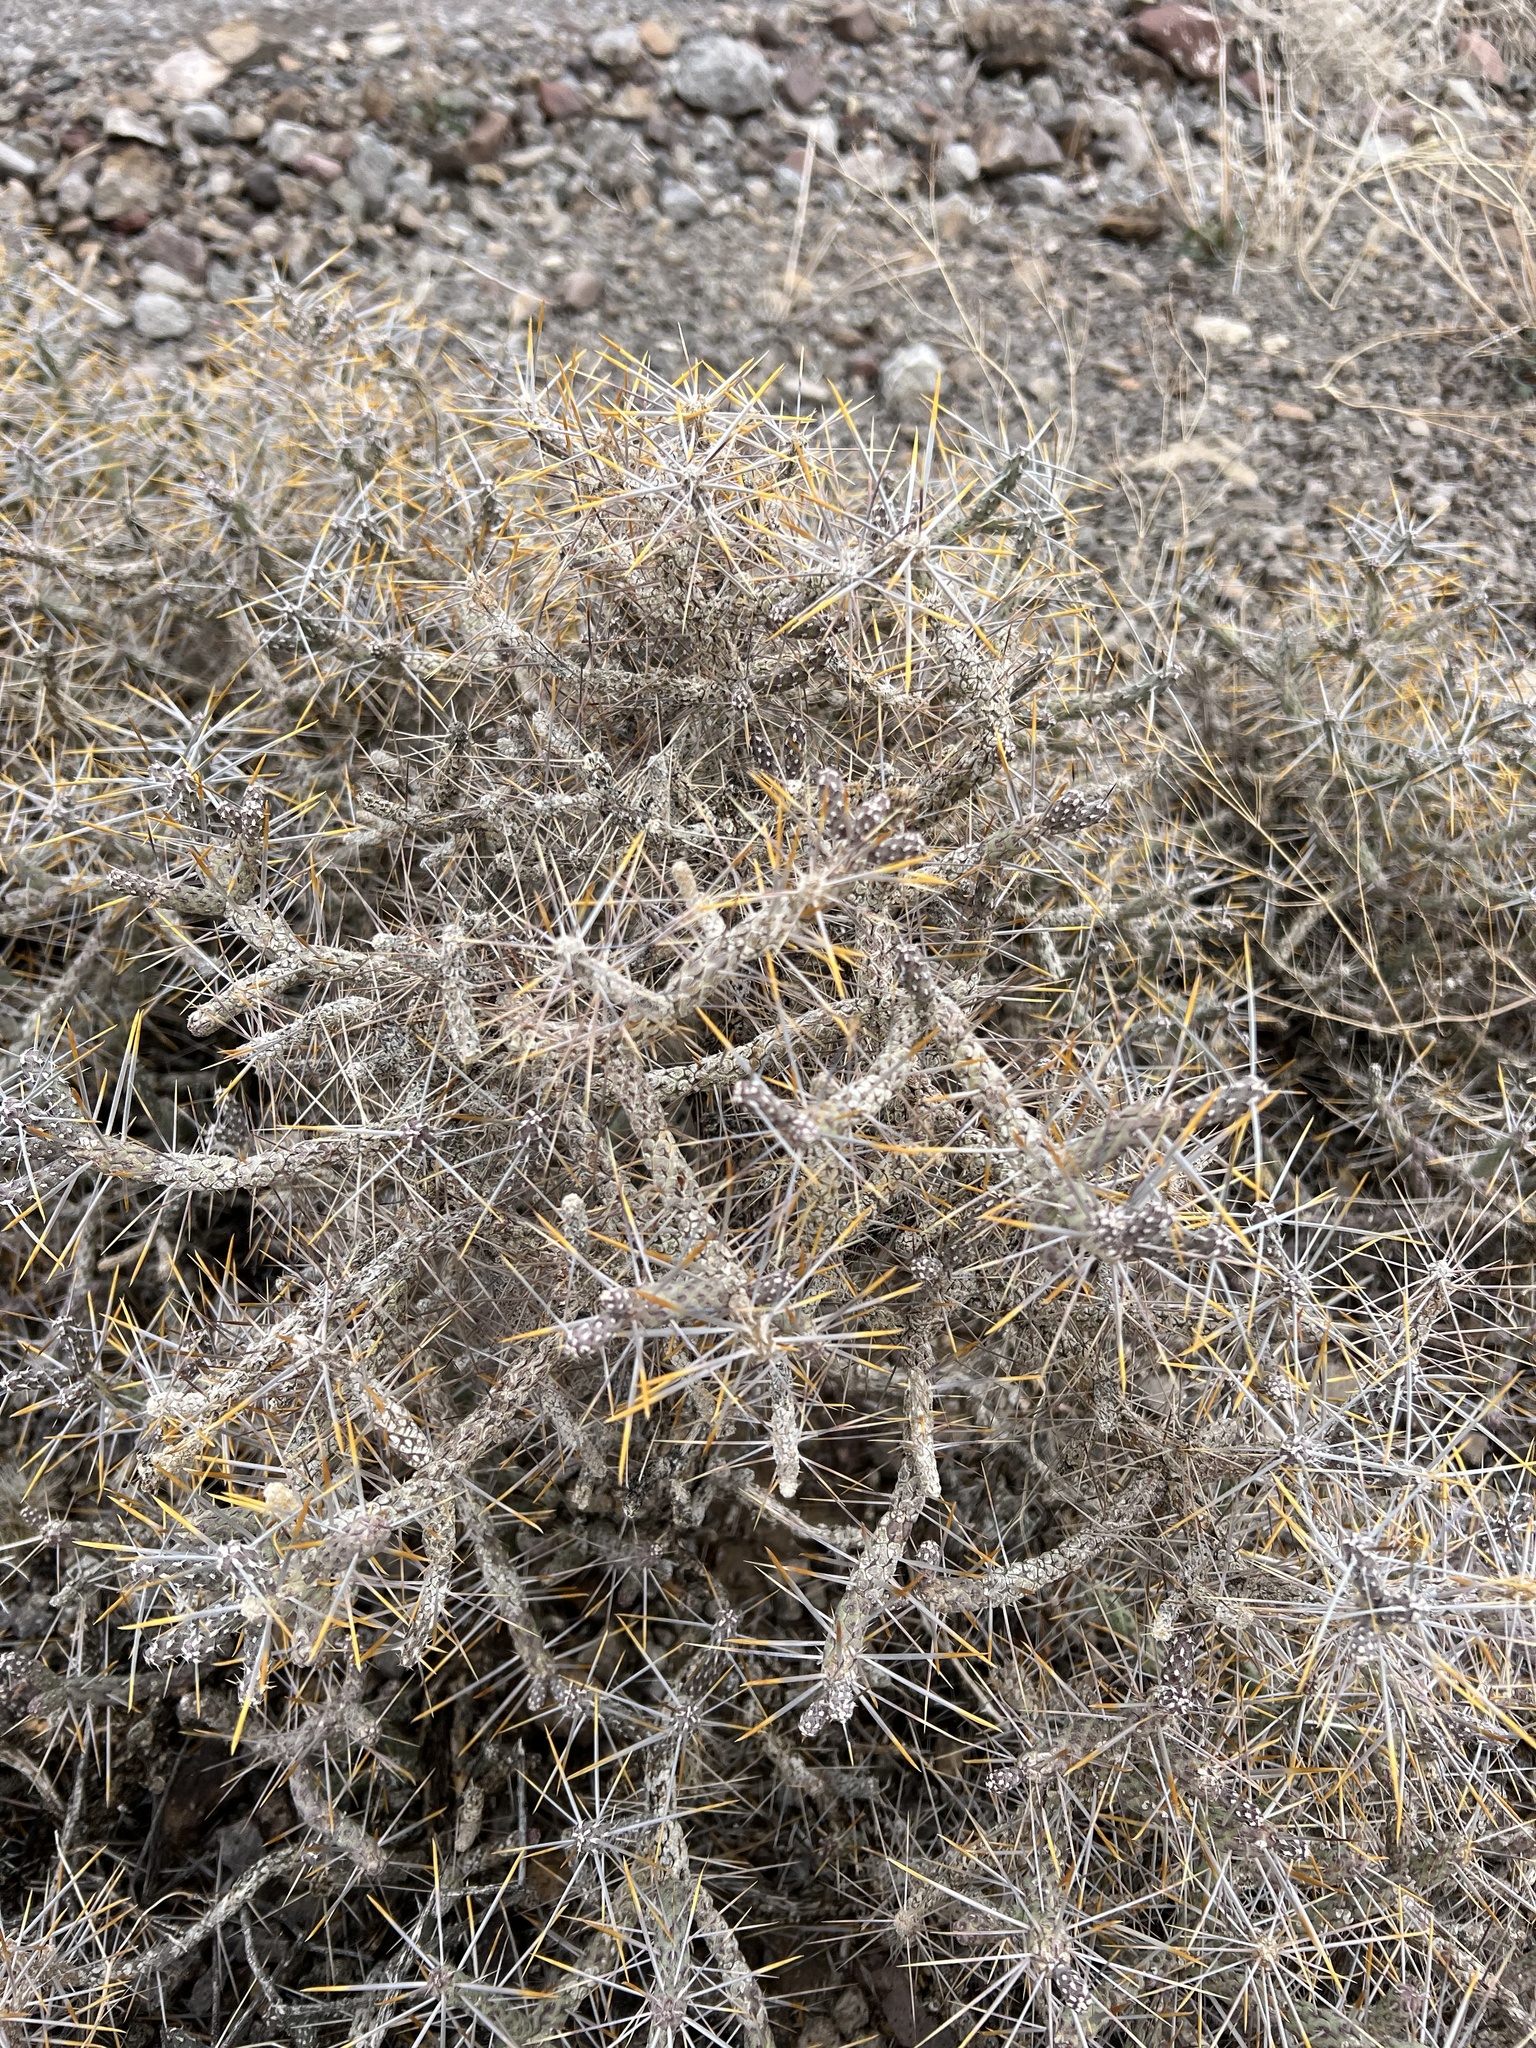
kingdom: Plantae
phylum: Tracheophyta
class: Magnoliopsida
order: Caryophyllales
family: Cactaceae
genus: Cylindropuntia
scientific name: Cylindropuntia ramosissima
